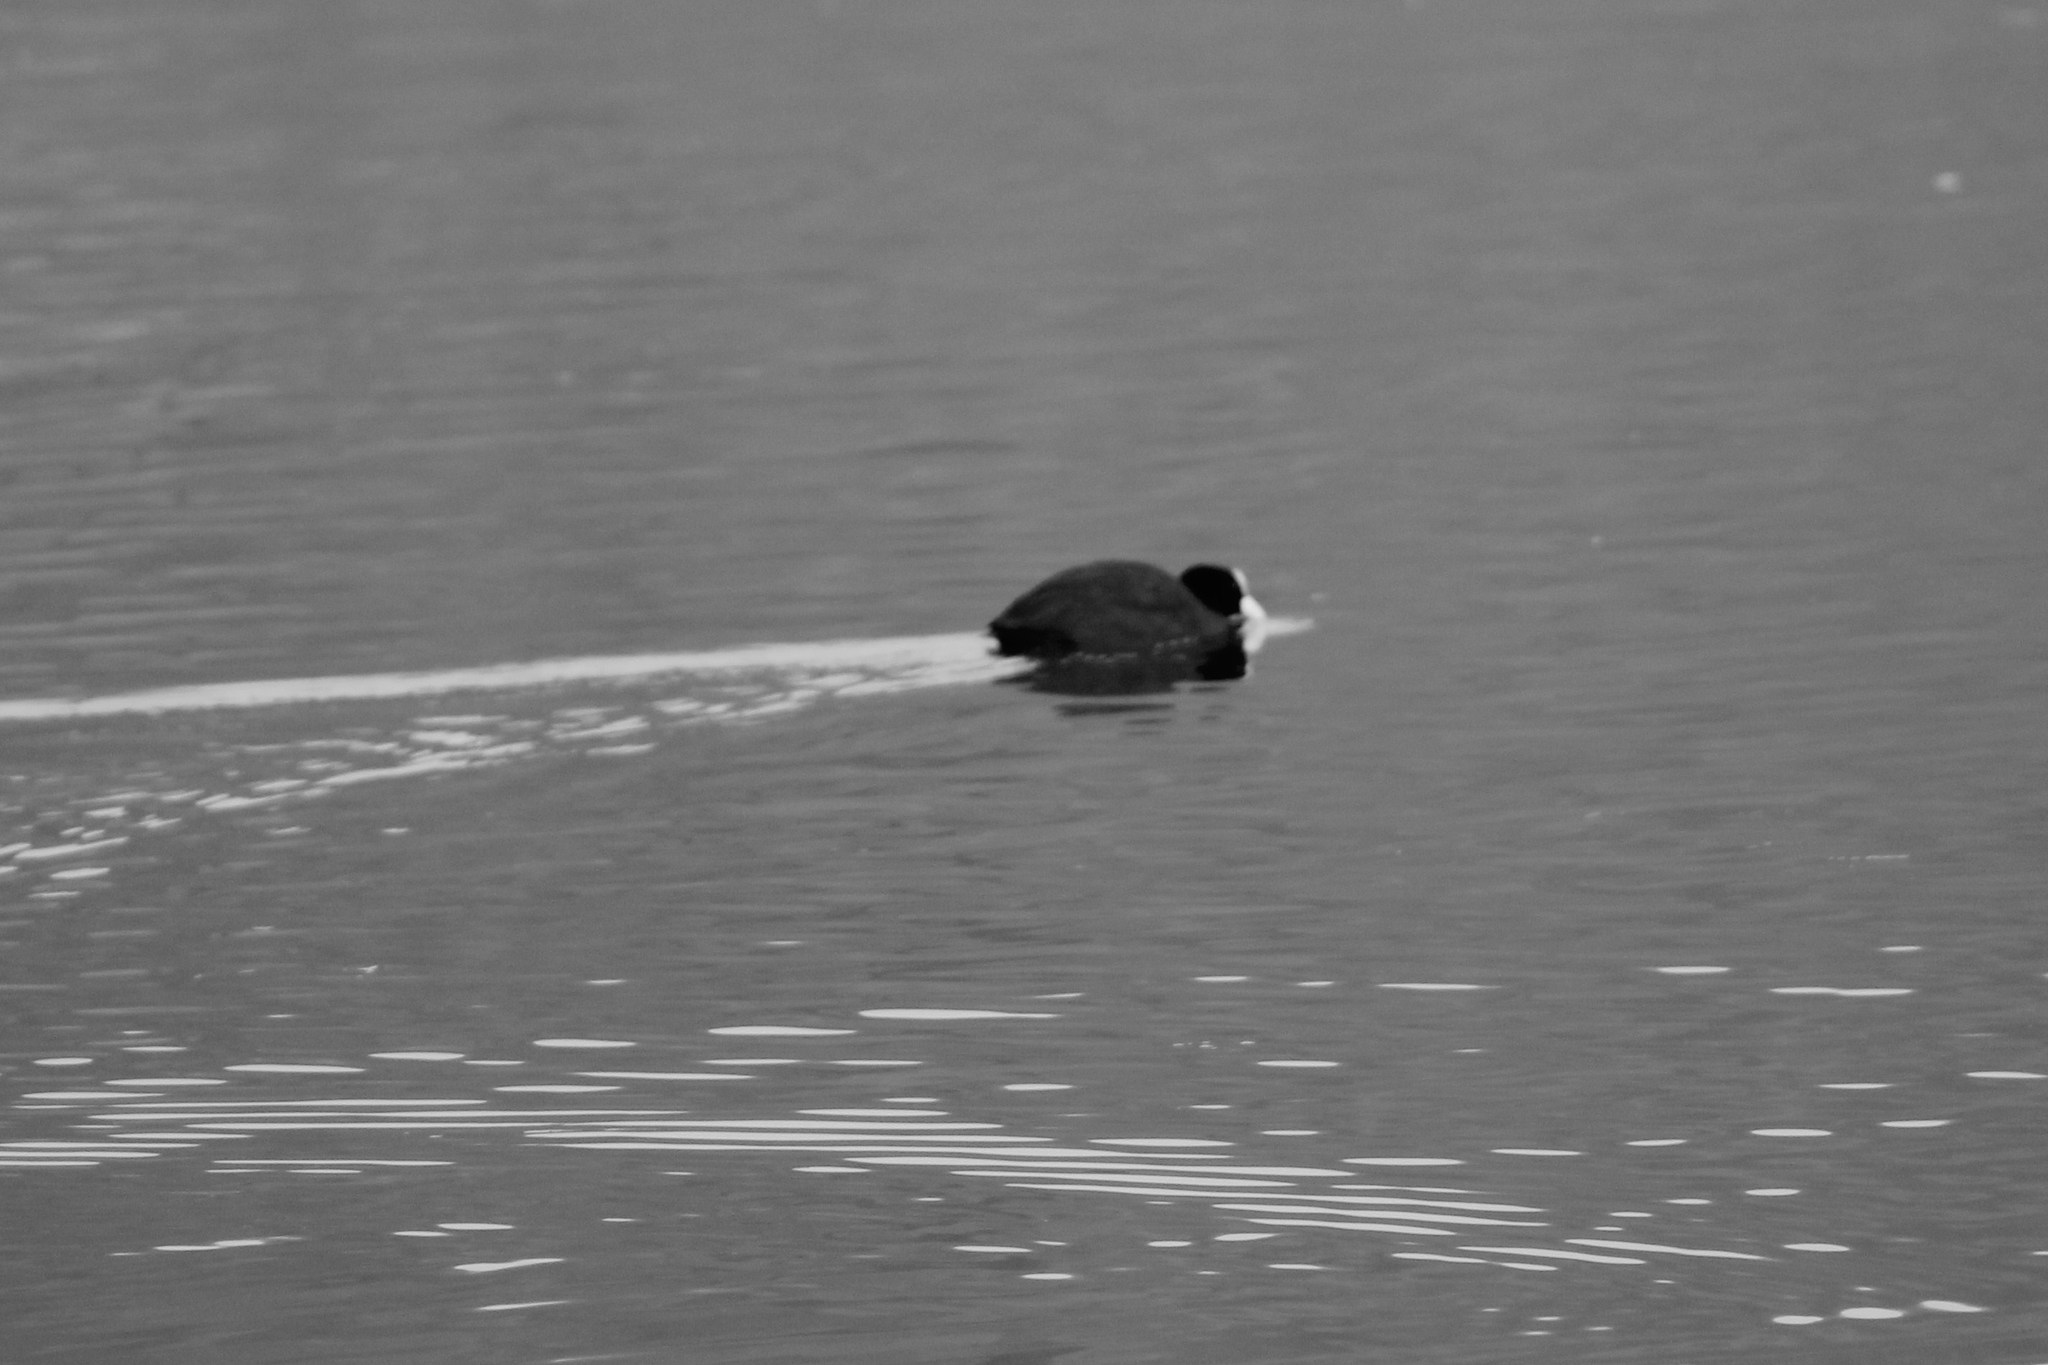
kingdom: Animalia
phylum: Chordata
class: Aves
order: Gruiformes
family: Rallidae
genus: Fulica
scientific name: Fulica atra
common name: Eurasian coot
